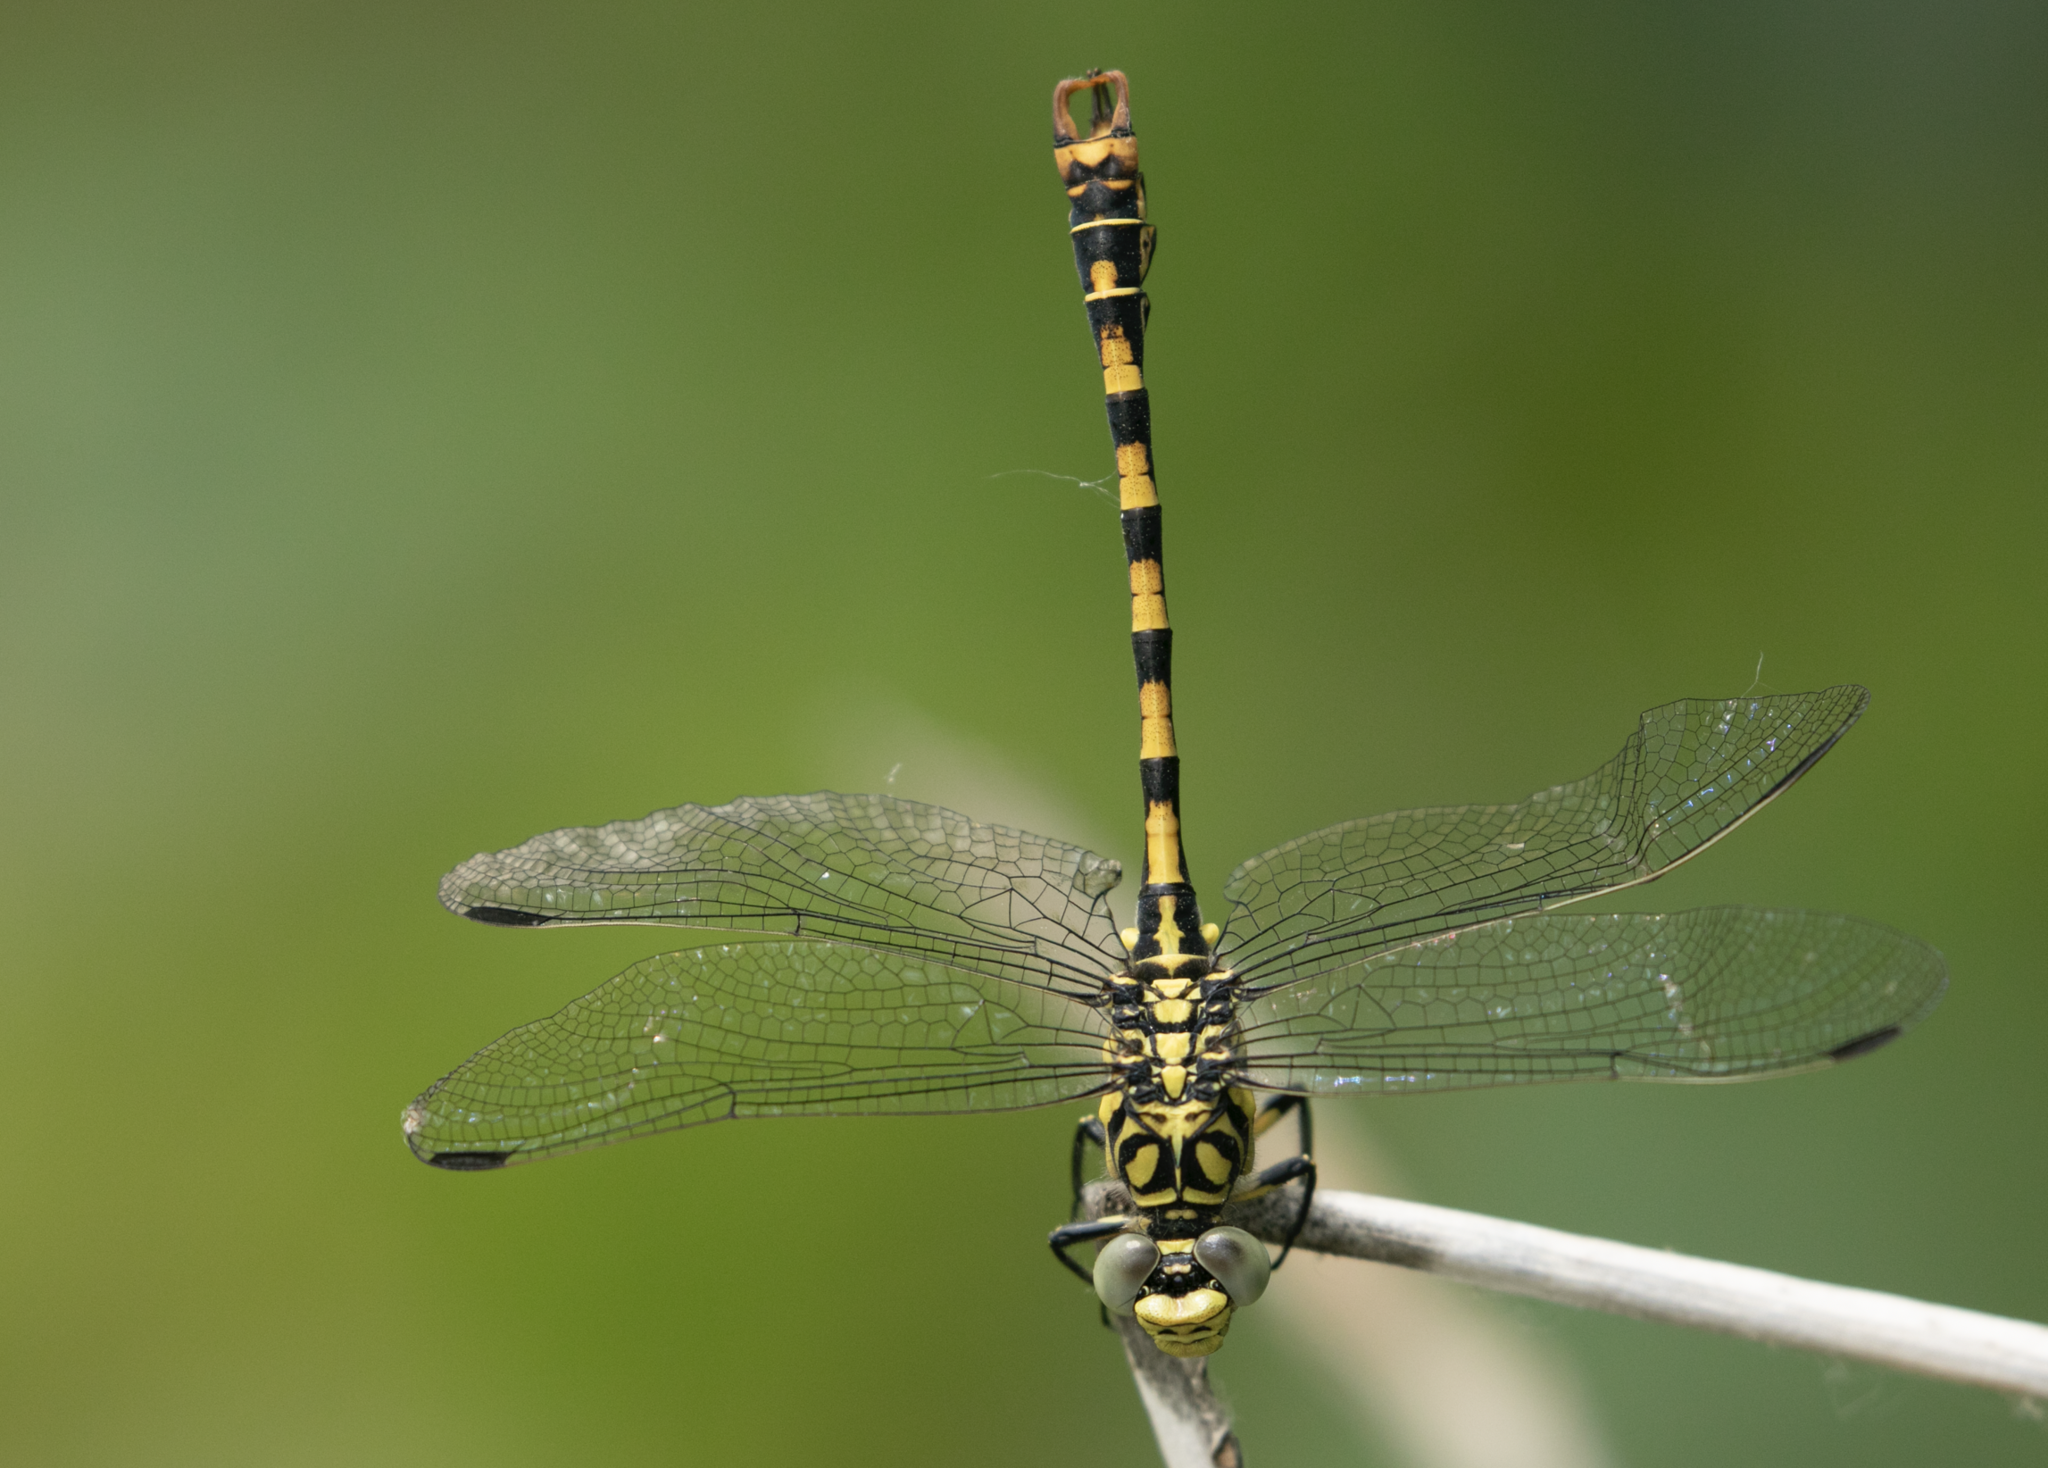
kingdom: Animalia
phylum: Arthropoda
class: Insecta
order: Odonata
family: Gomphidae
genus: Onychogomphus
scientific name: Onychogomphus forcipatus
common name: Small pincertail
